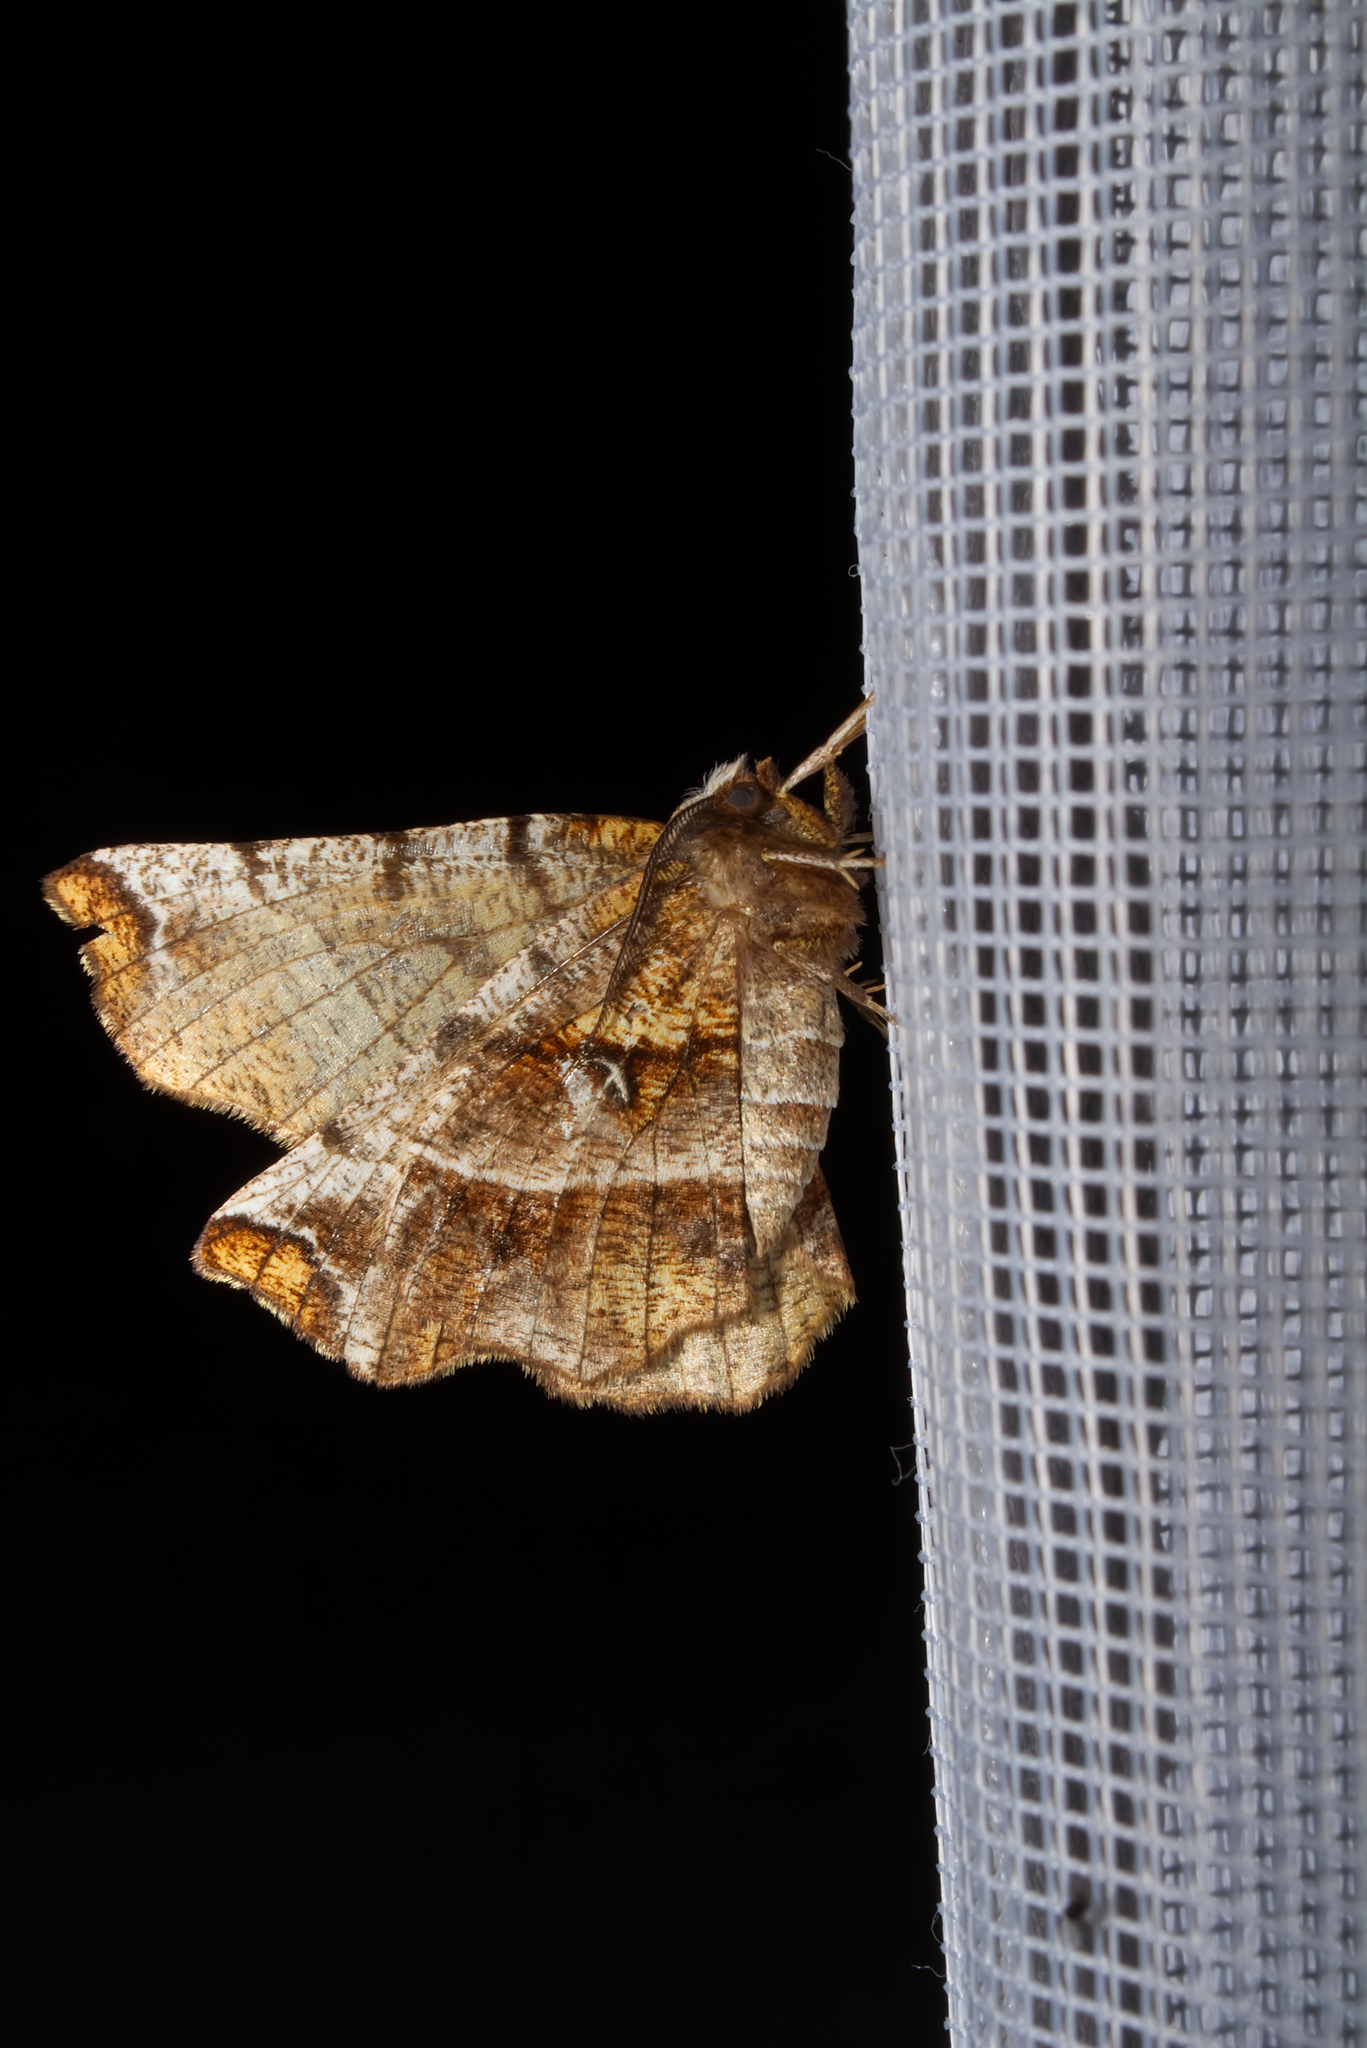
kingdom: Animalia
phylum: Arthropoda
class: Insecta
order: Lepidoptera
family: Geometridae
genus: Selenia
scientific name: Selenia dentaria
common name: Early thorn
